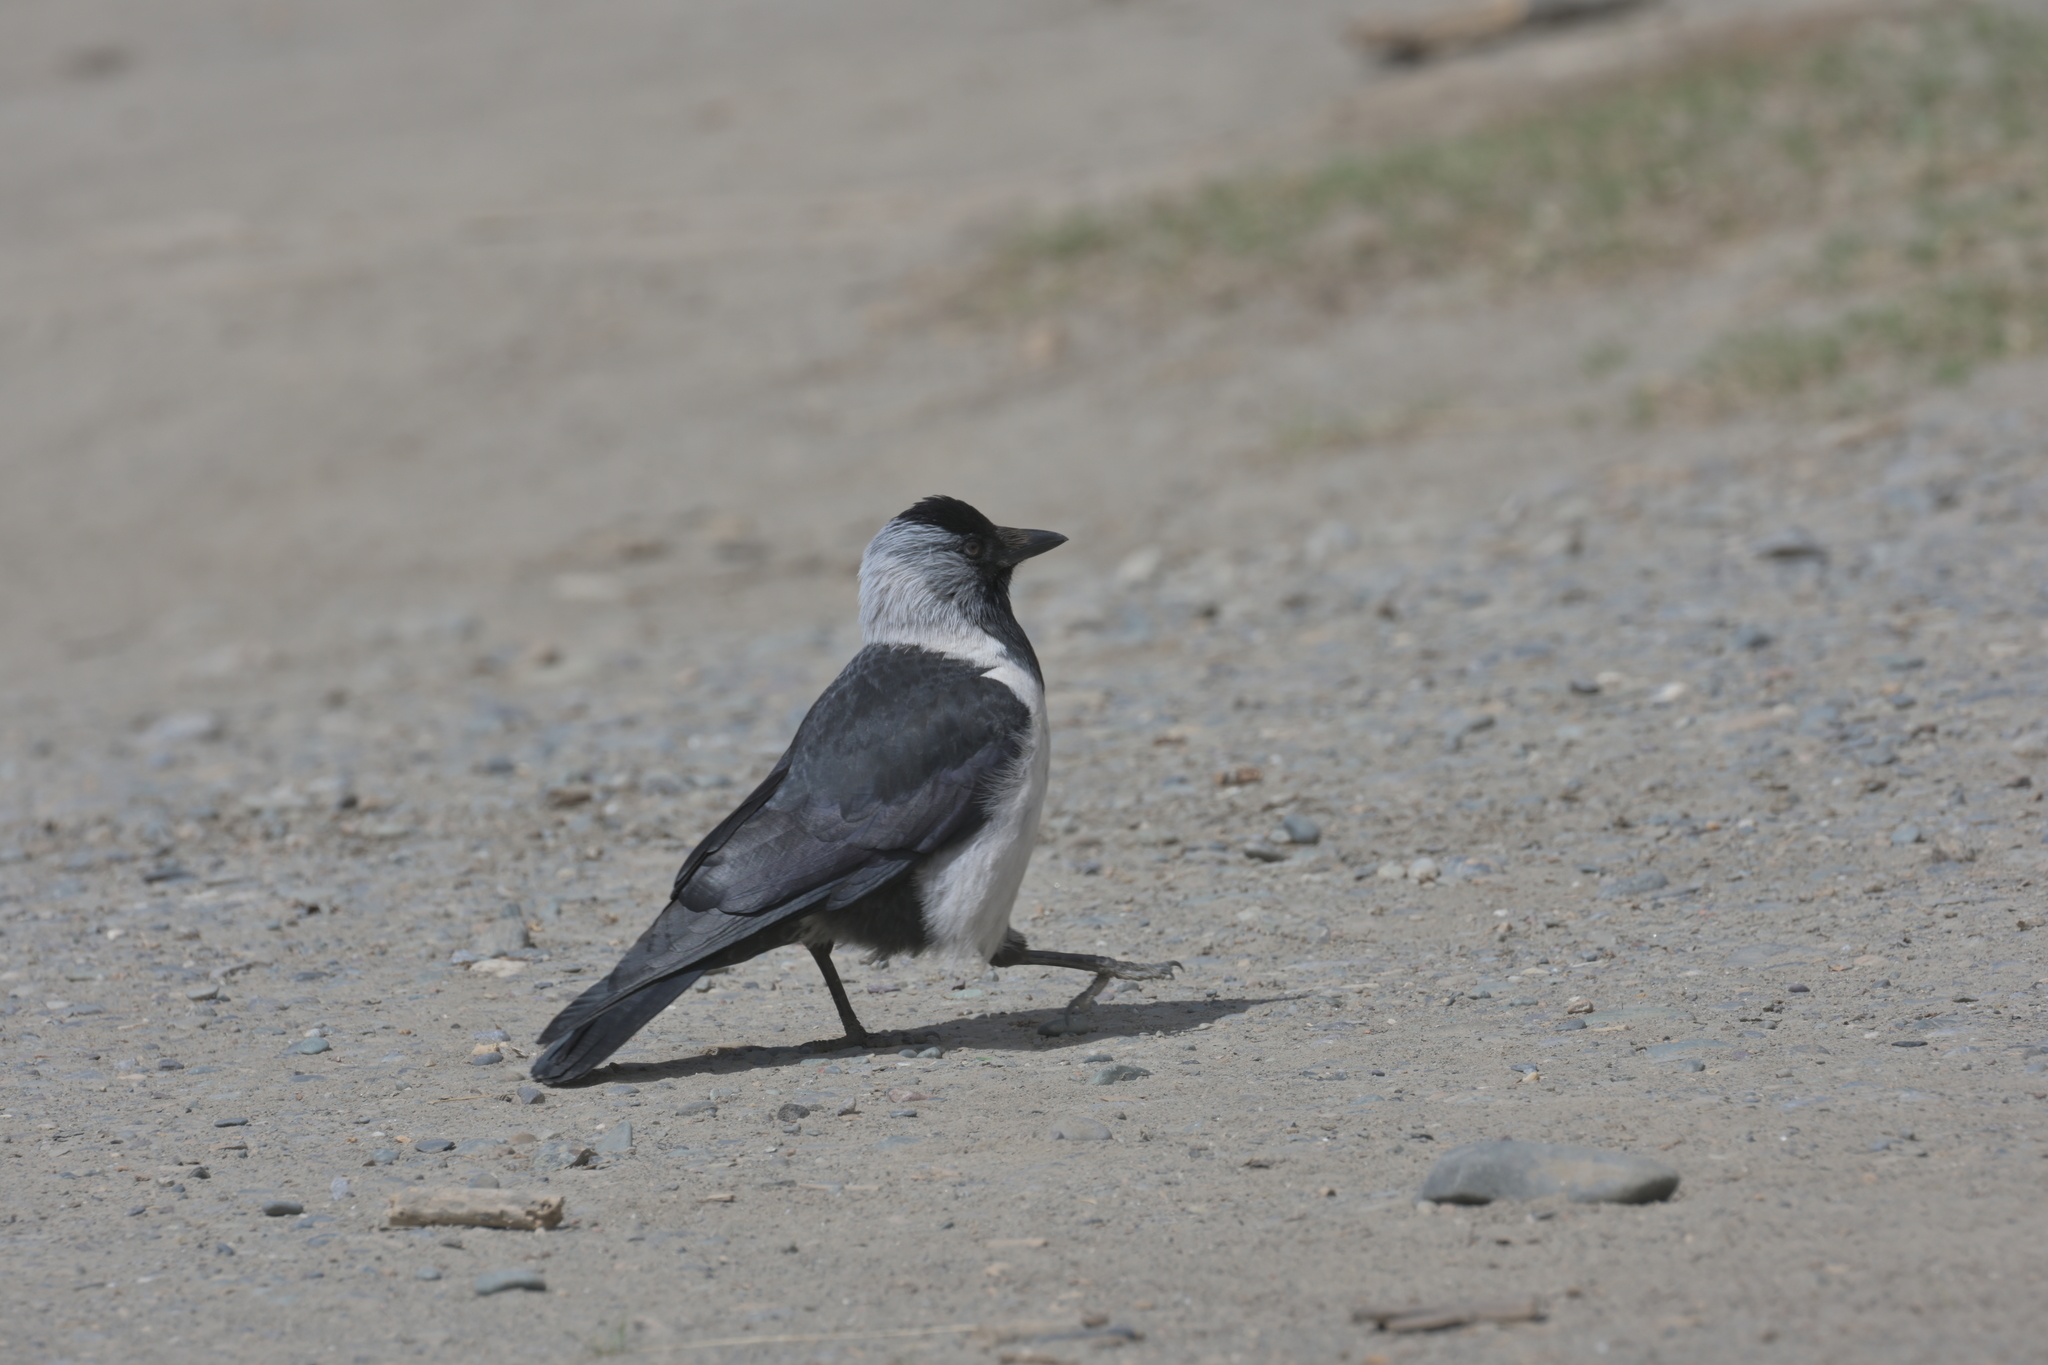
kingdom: Animalia
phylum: Chordata
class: Aves
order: Passeriformes
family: Corvidae
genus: Coloeus
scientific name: Coloeus dauuricus
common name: Daurian jackdaw
